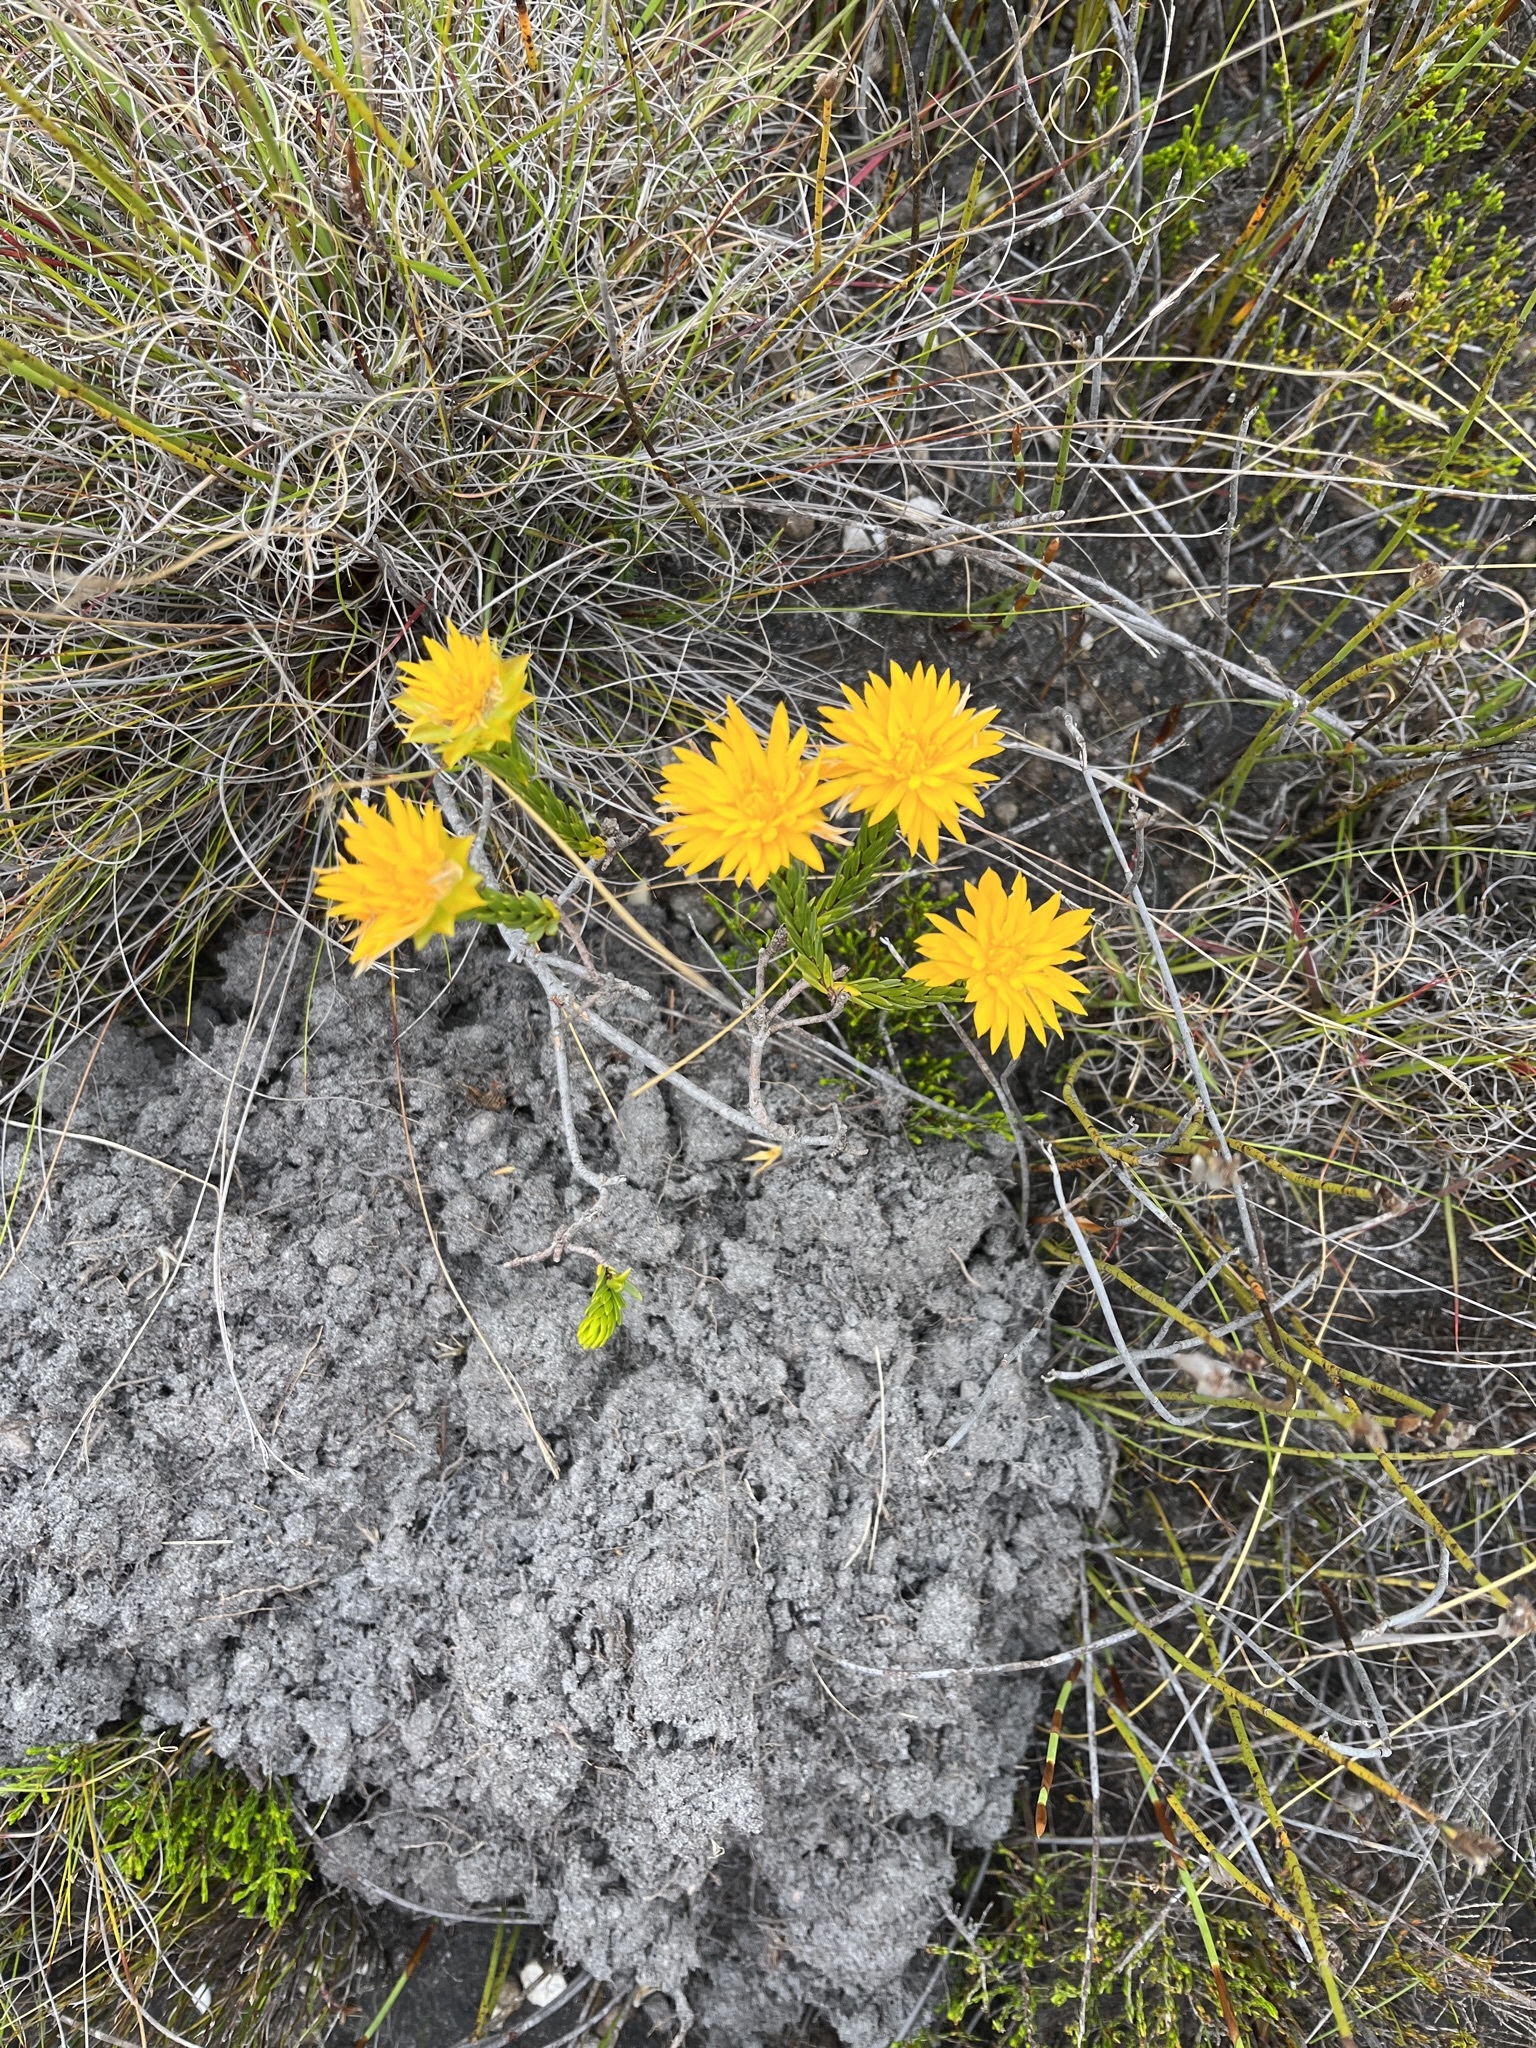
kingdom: Plantae
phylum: Tracheophyta
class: Magnoliopsida
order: Malvales
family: Thymelaeaceae
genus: Lachnaea
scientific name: Lachnaea aurea
